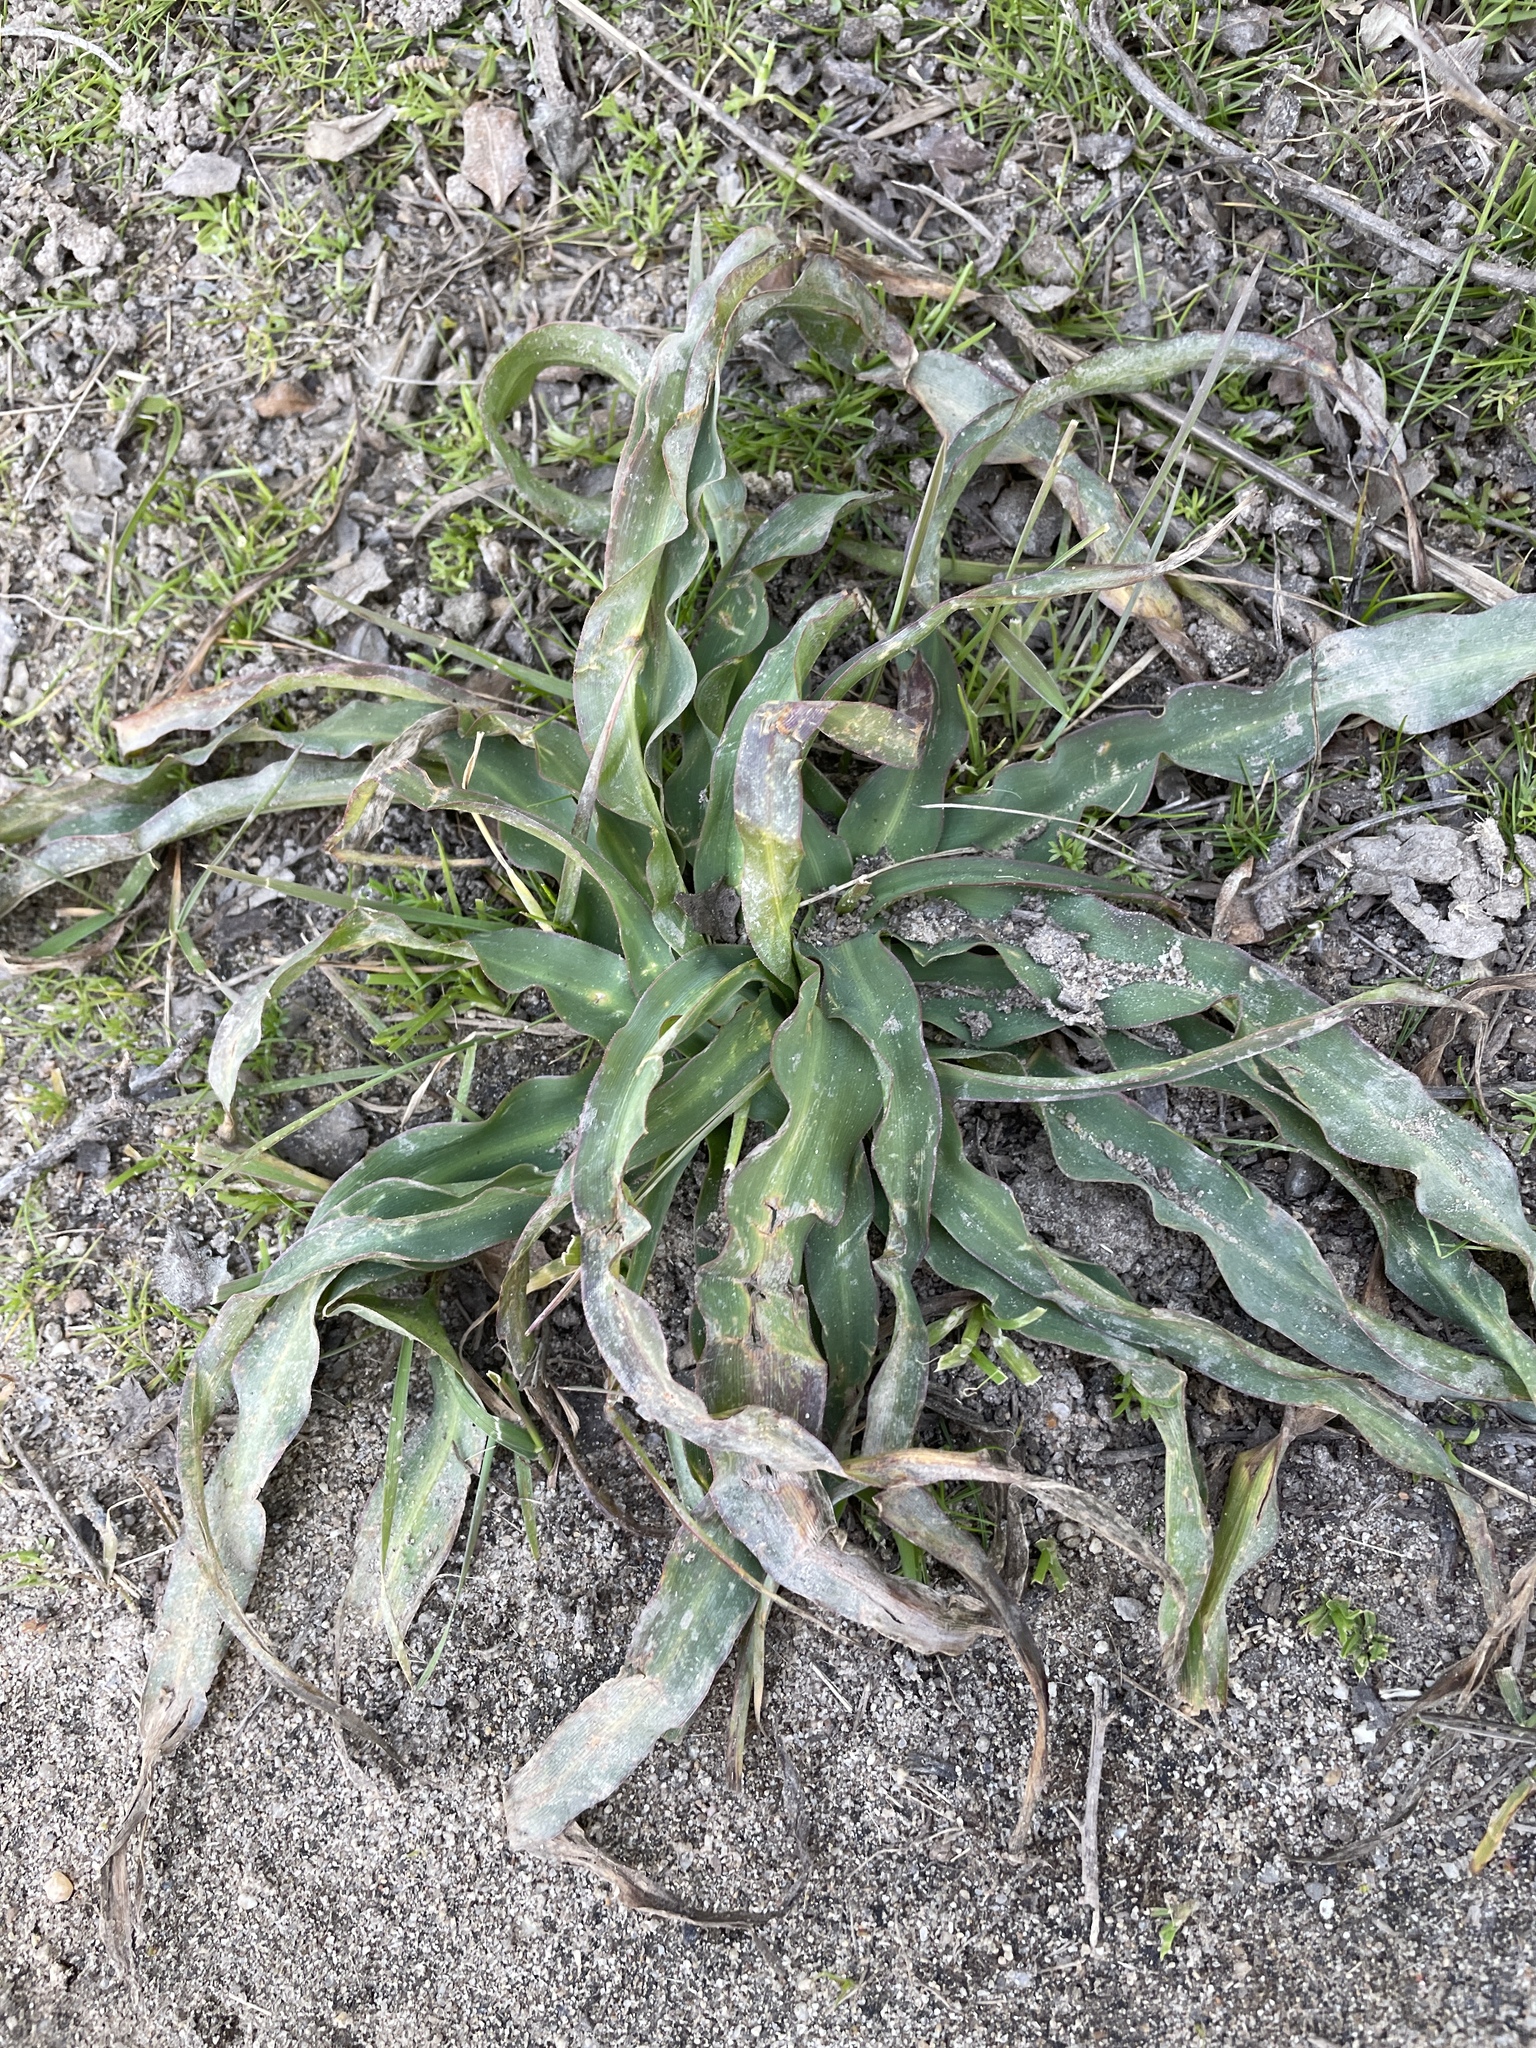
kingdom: Plantae
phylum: Tracheophyta
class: Liliopsida
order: Asparagales
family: Asparagaceae
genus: Chlorogalum
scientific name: Chlorogalum pomeridianum
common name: Amole
